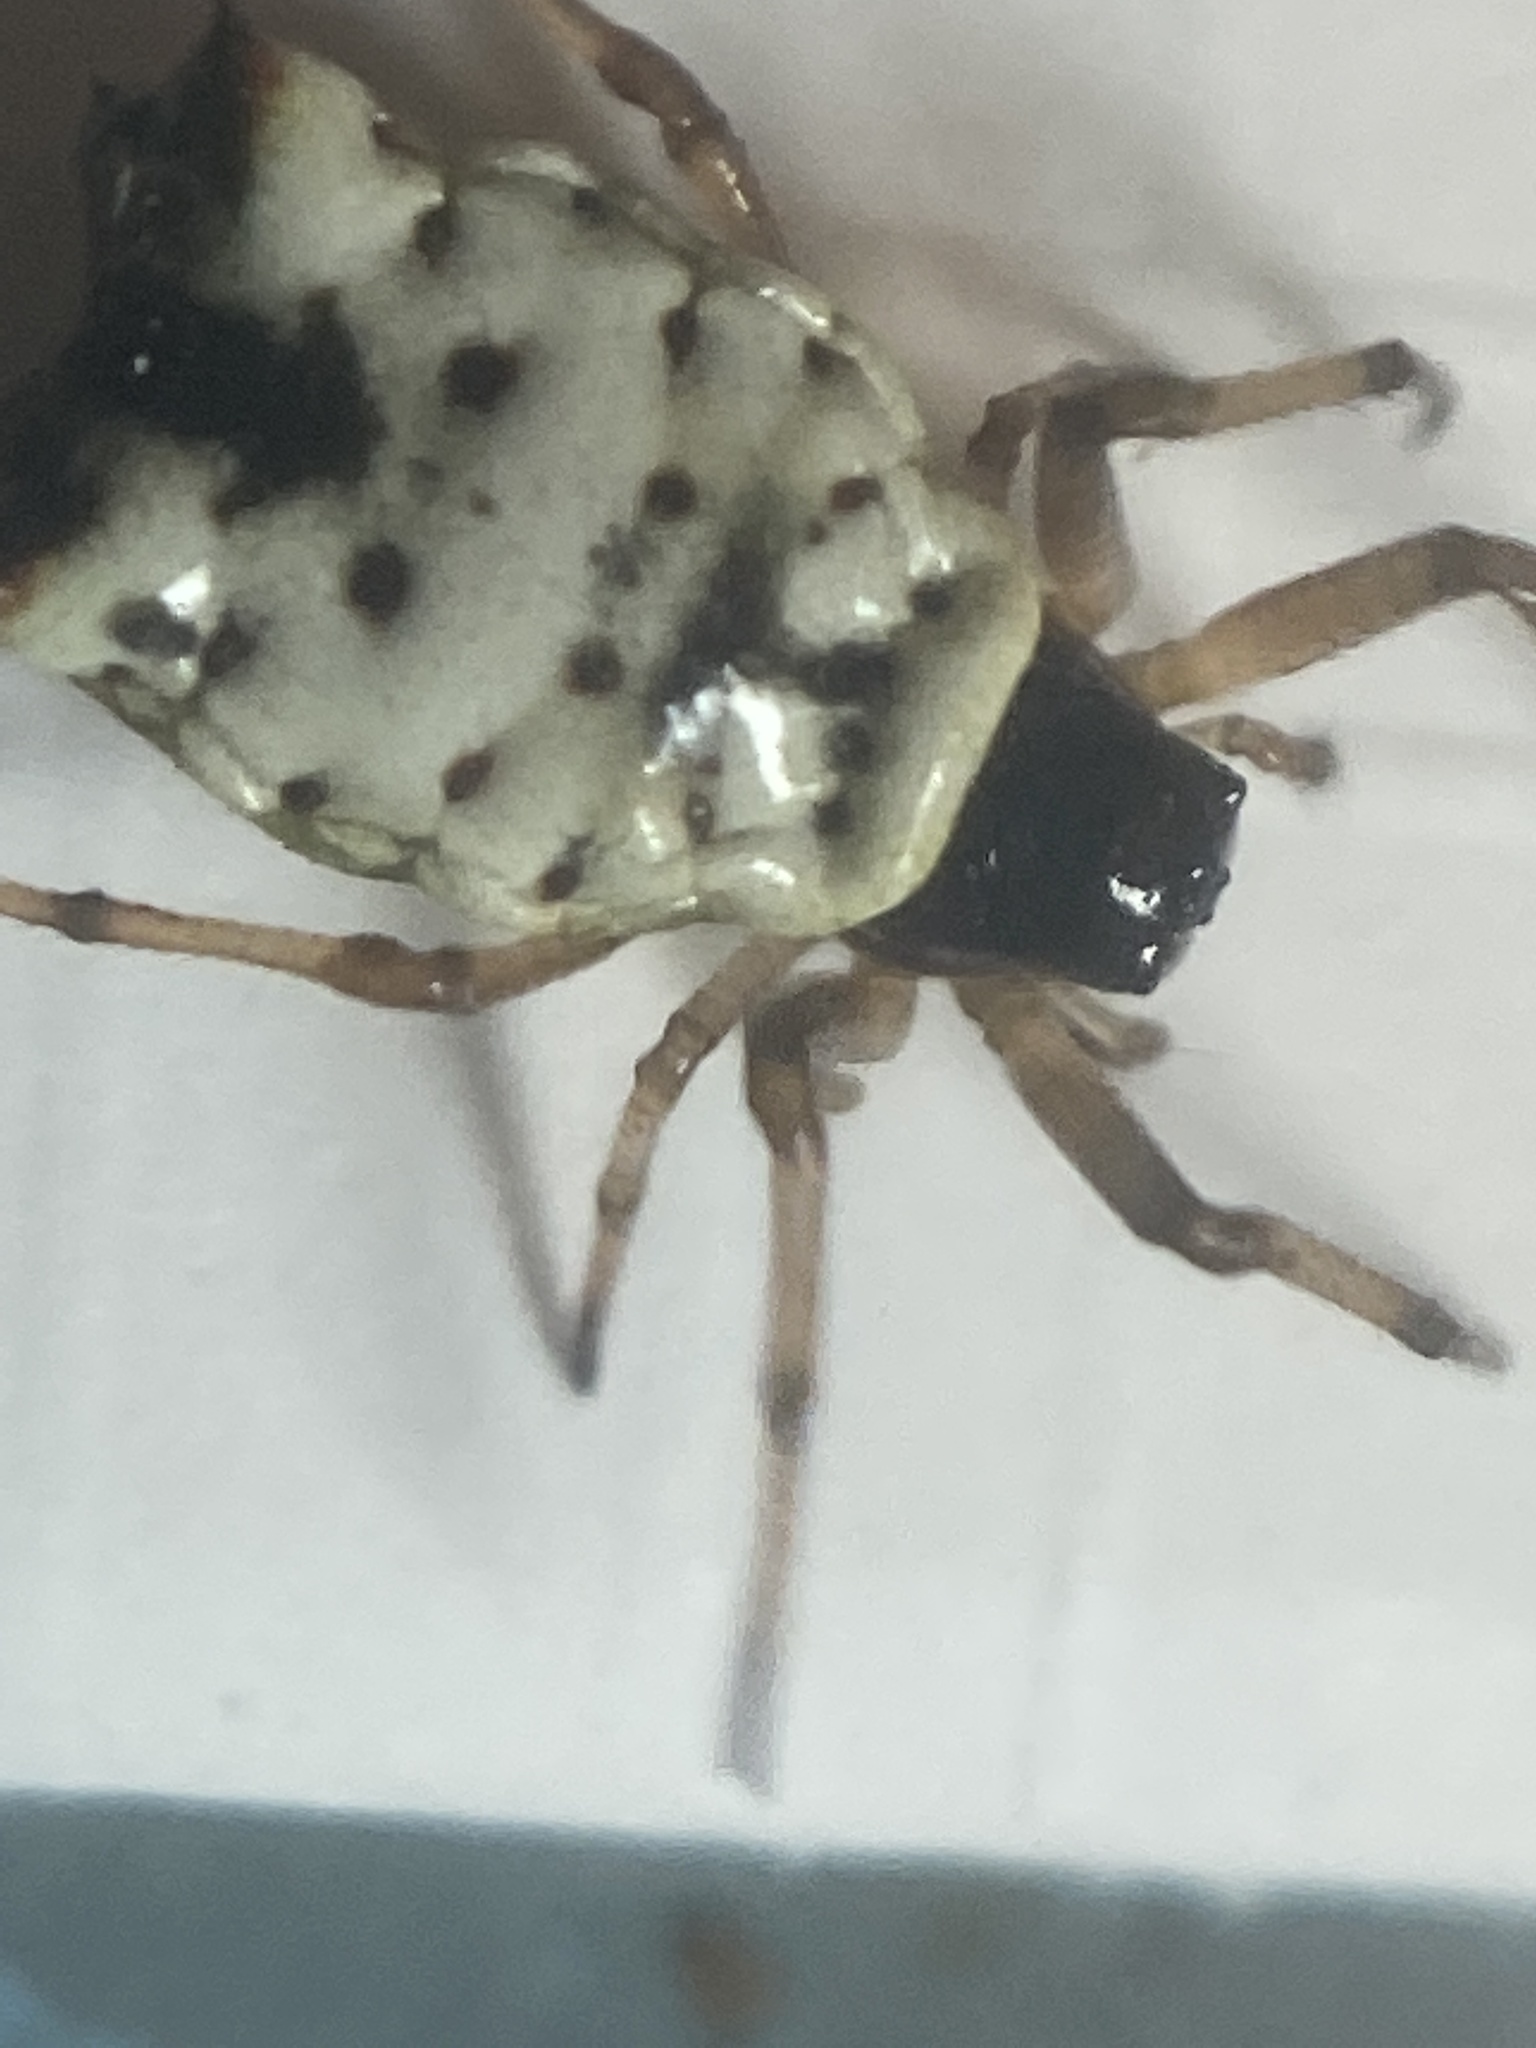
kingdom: Animalia
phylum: Arthropoda
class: Arachnida
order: Araneae
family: Araneidae
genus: Micrathena
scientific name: Micrathena mitrata
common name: Orb weavers
